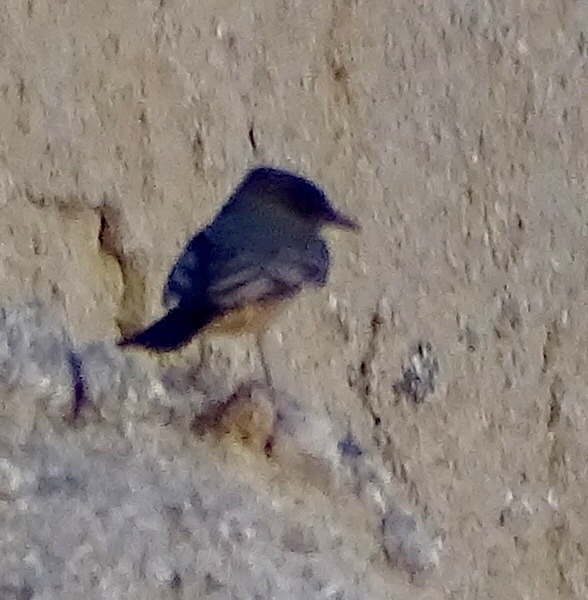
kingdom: Animalia
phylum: Chordata
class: Aves
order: Passeriformes
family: Tyrannidae
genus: Sayornis
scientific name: Sayornis saya
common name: Say's phoebe
